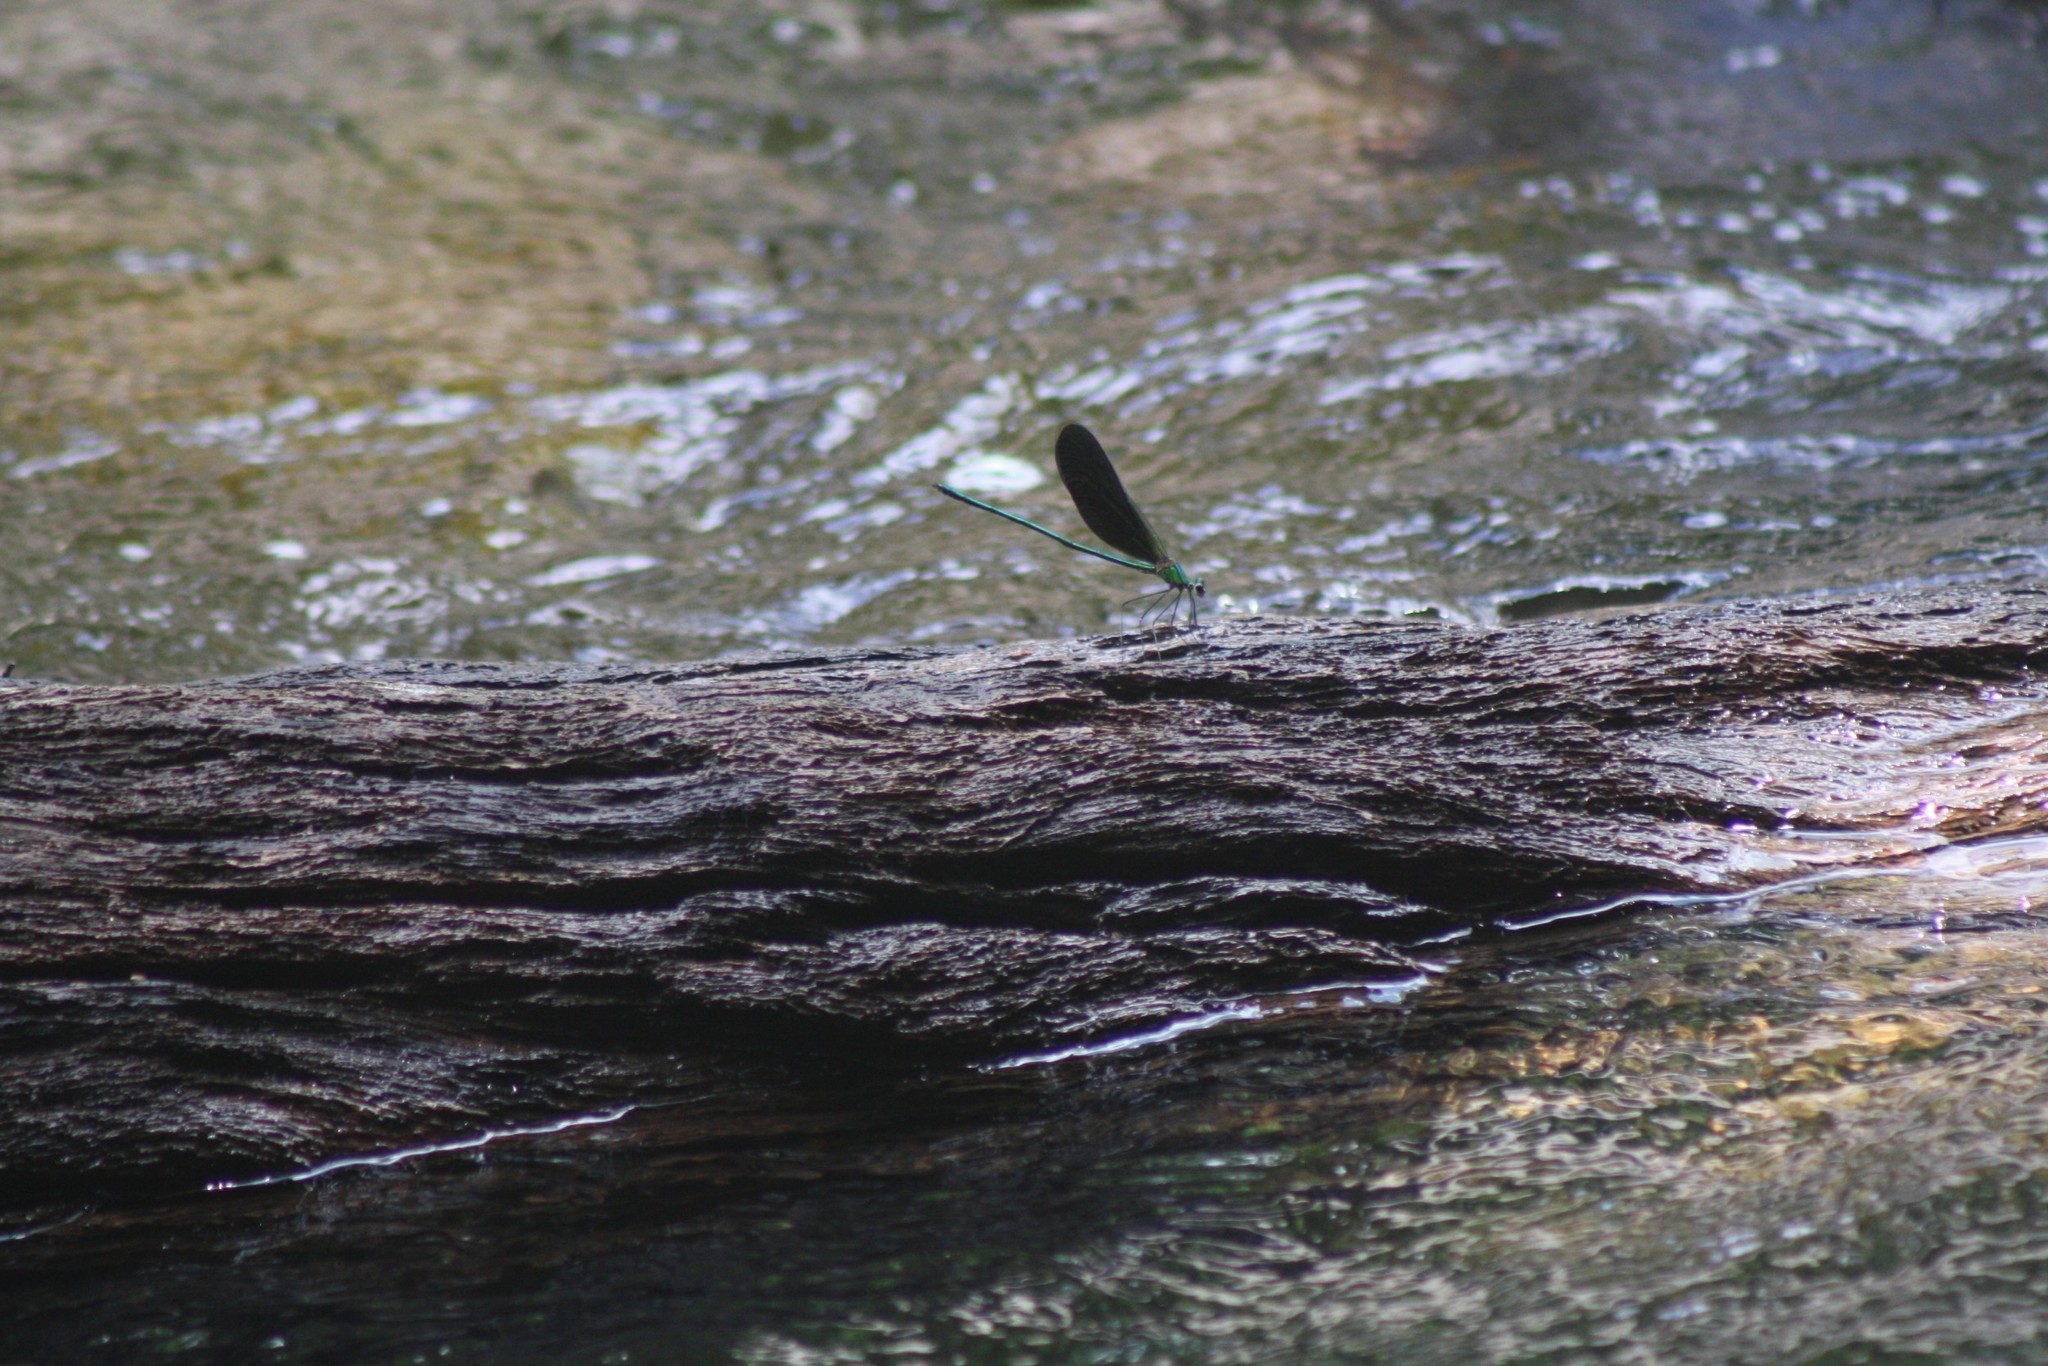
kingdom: Animalia
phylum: Arthropoda
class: Insecta
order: Odonata
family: Calopterygidae
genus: Neurobasis
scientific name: Neurobasis chinensis
